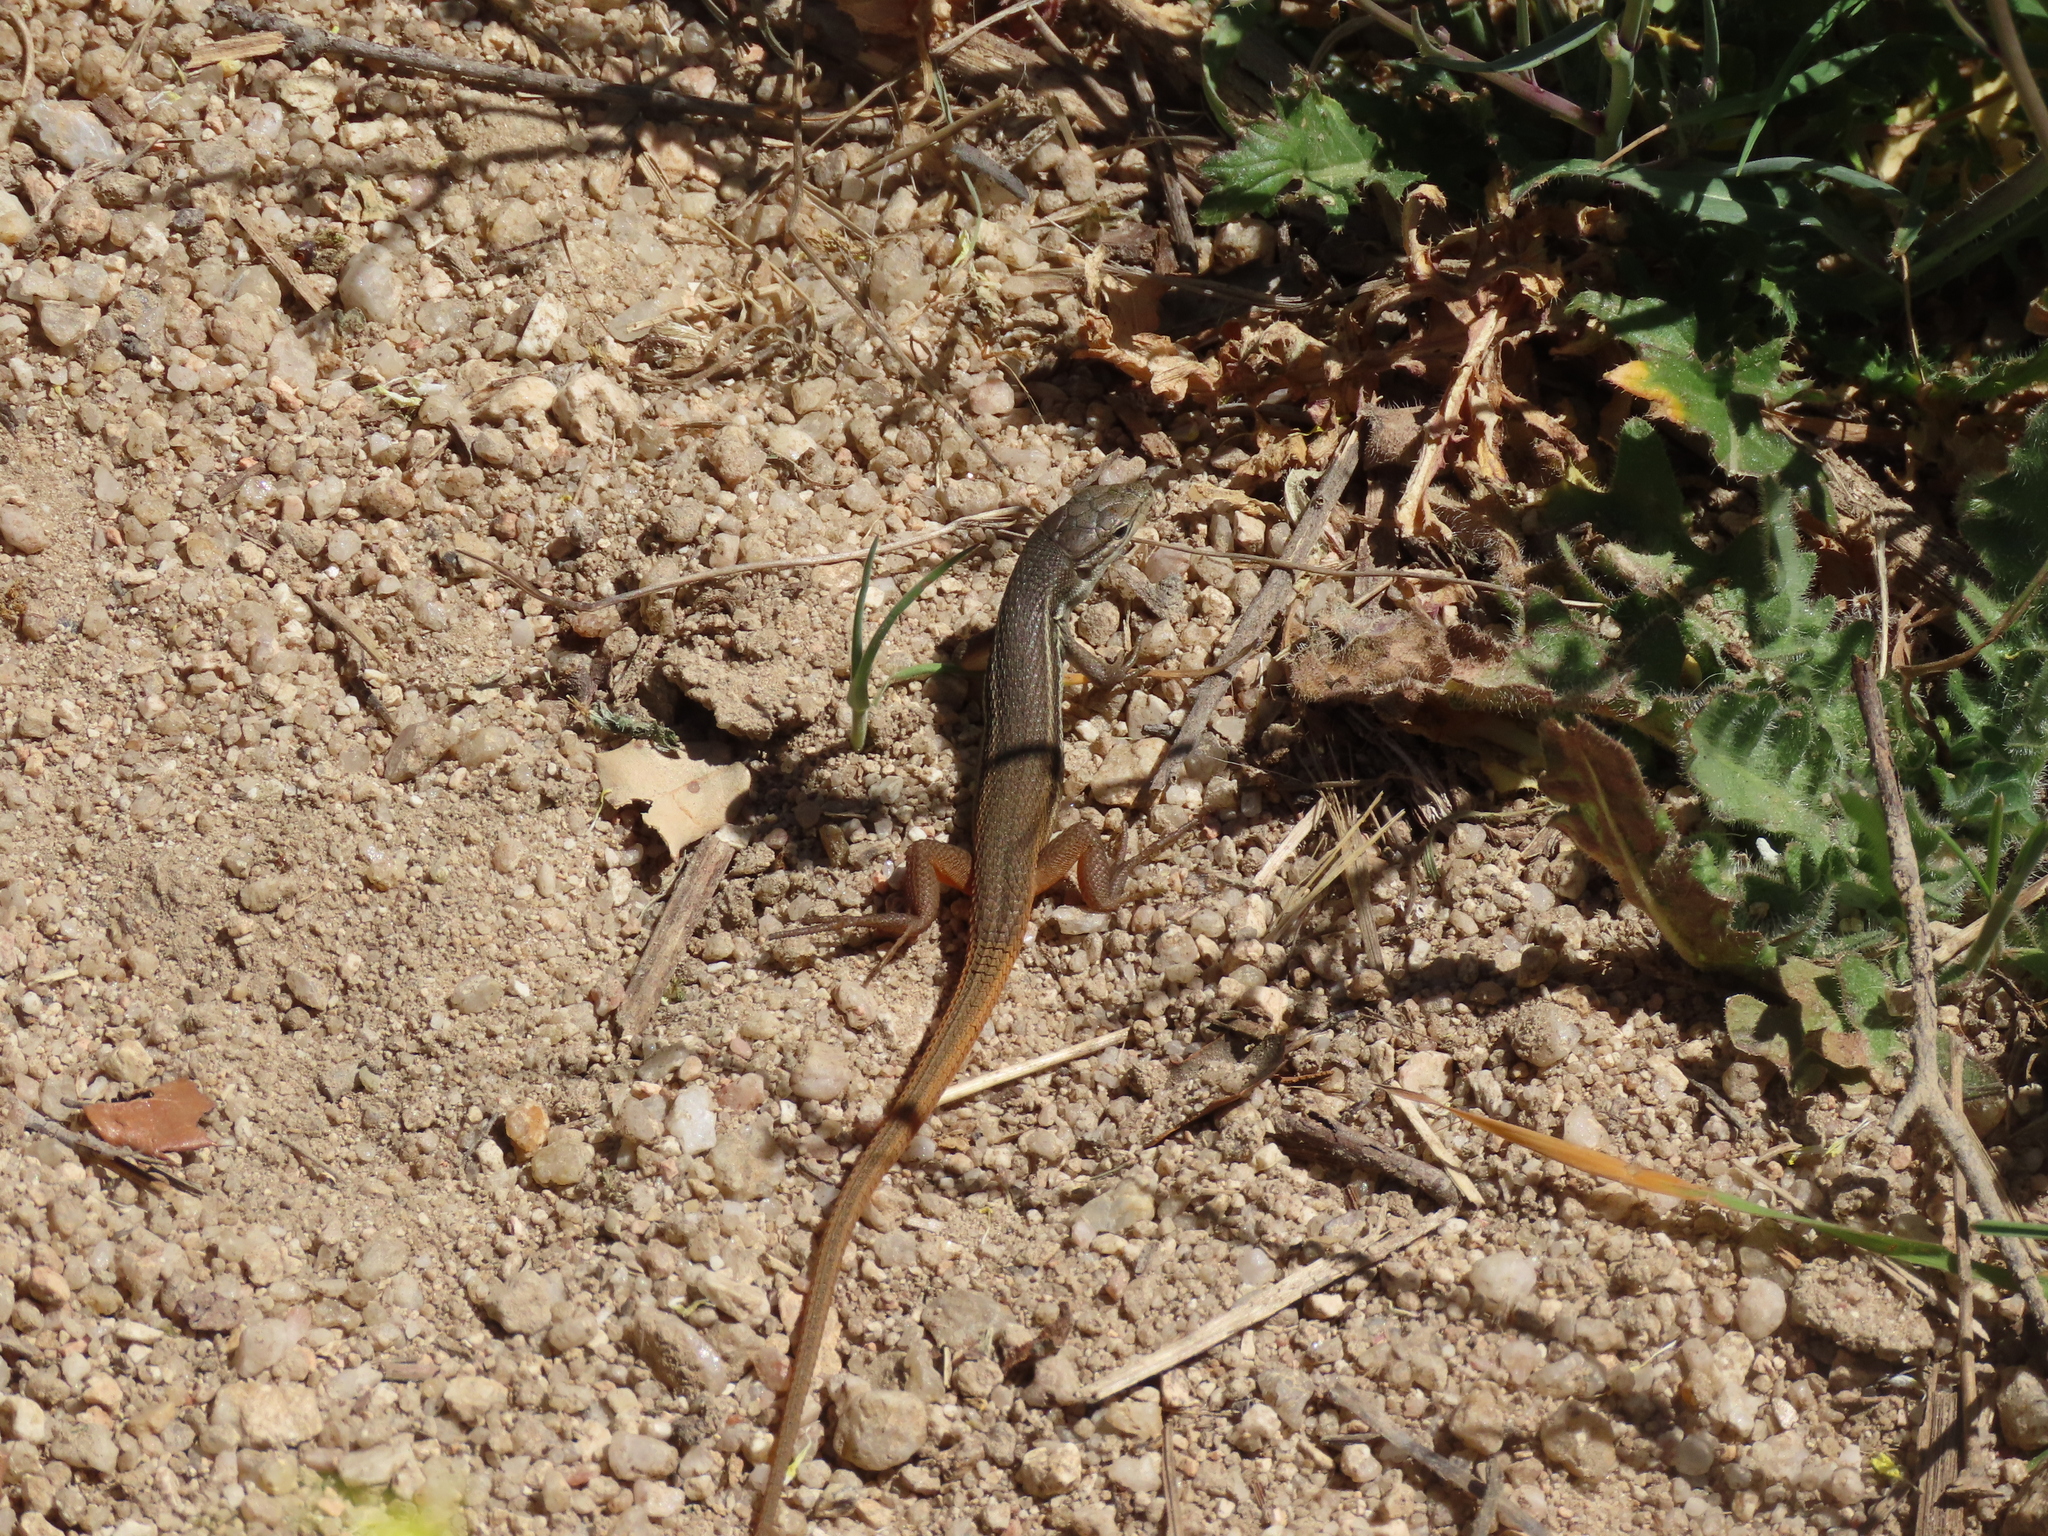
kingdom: Animalia
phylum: Chordata
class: Squamata
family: Lacertidae
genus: Psammodromus
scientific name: Psammodromus algirus
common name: Algerian psammodromus
